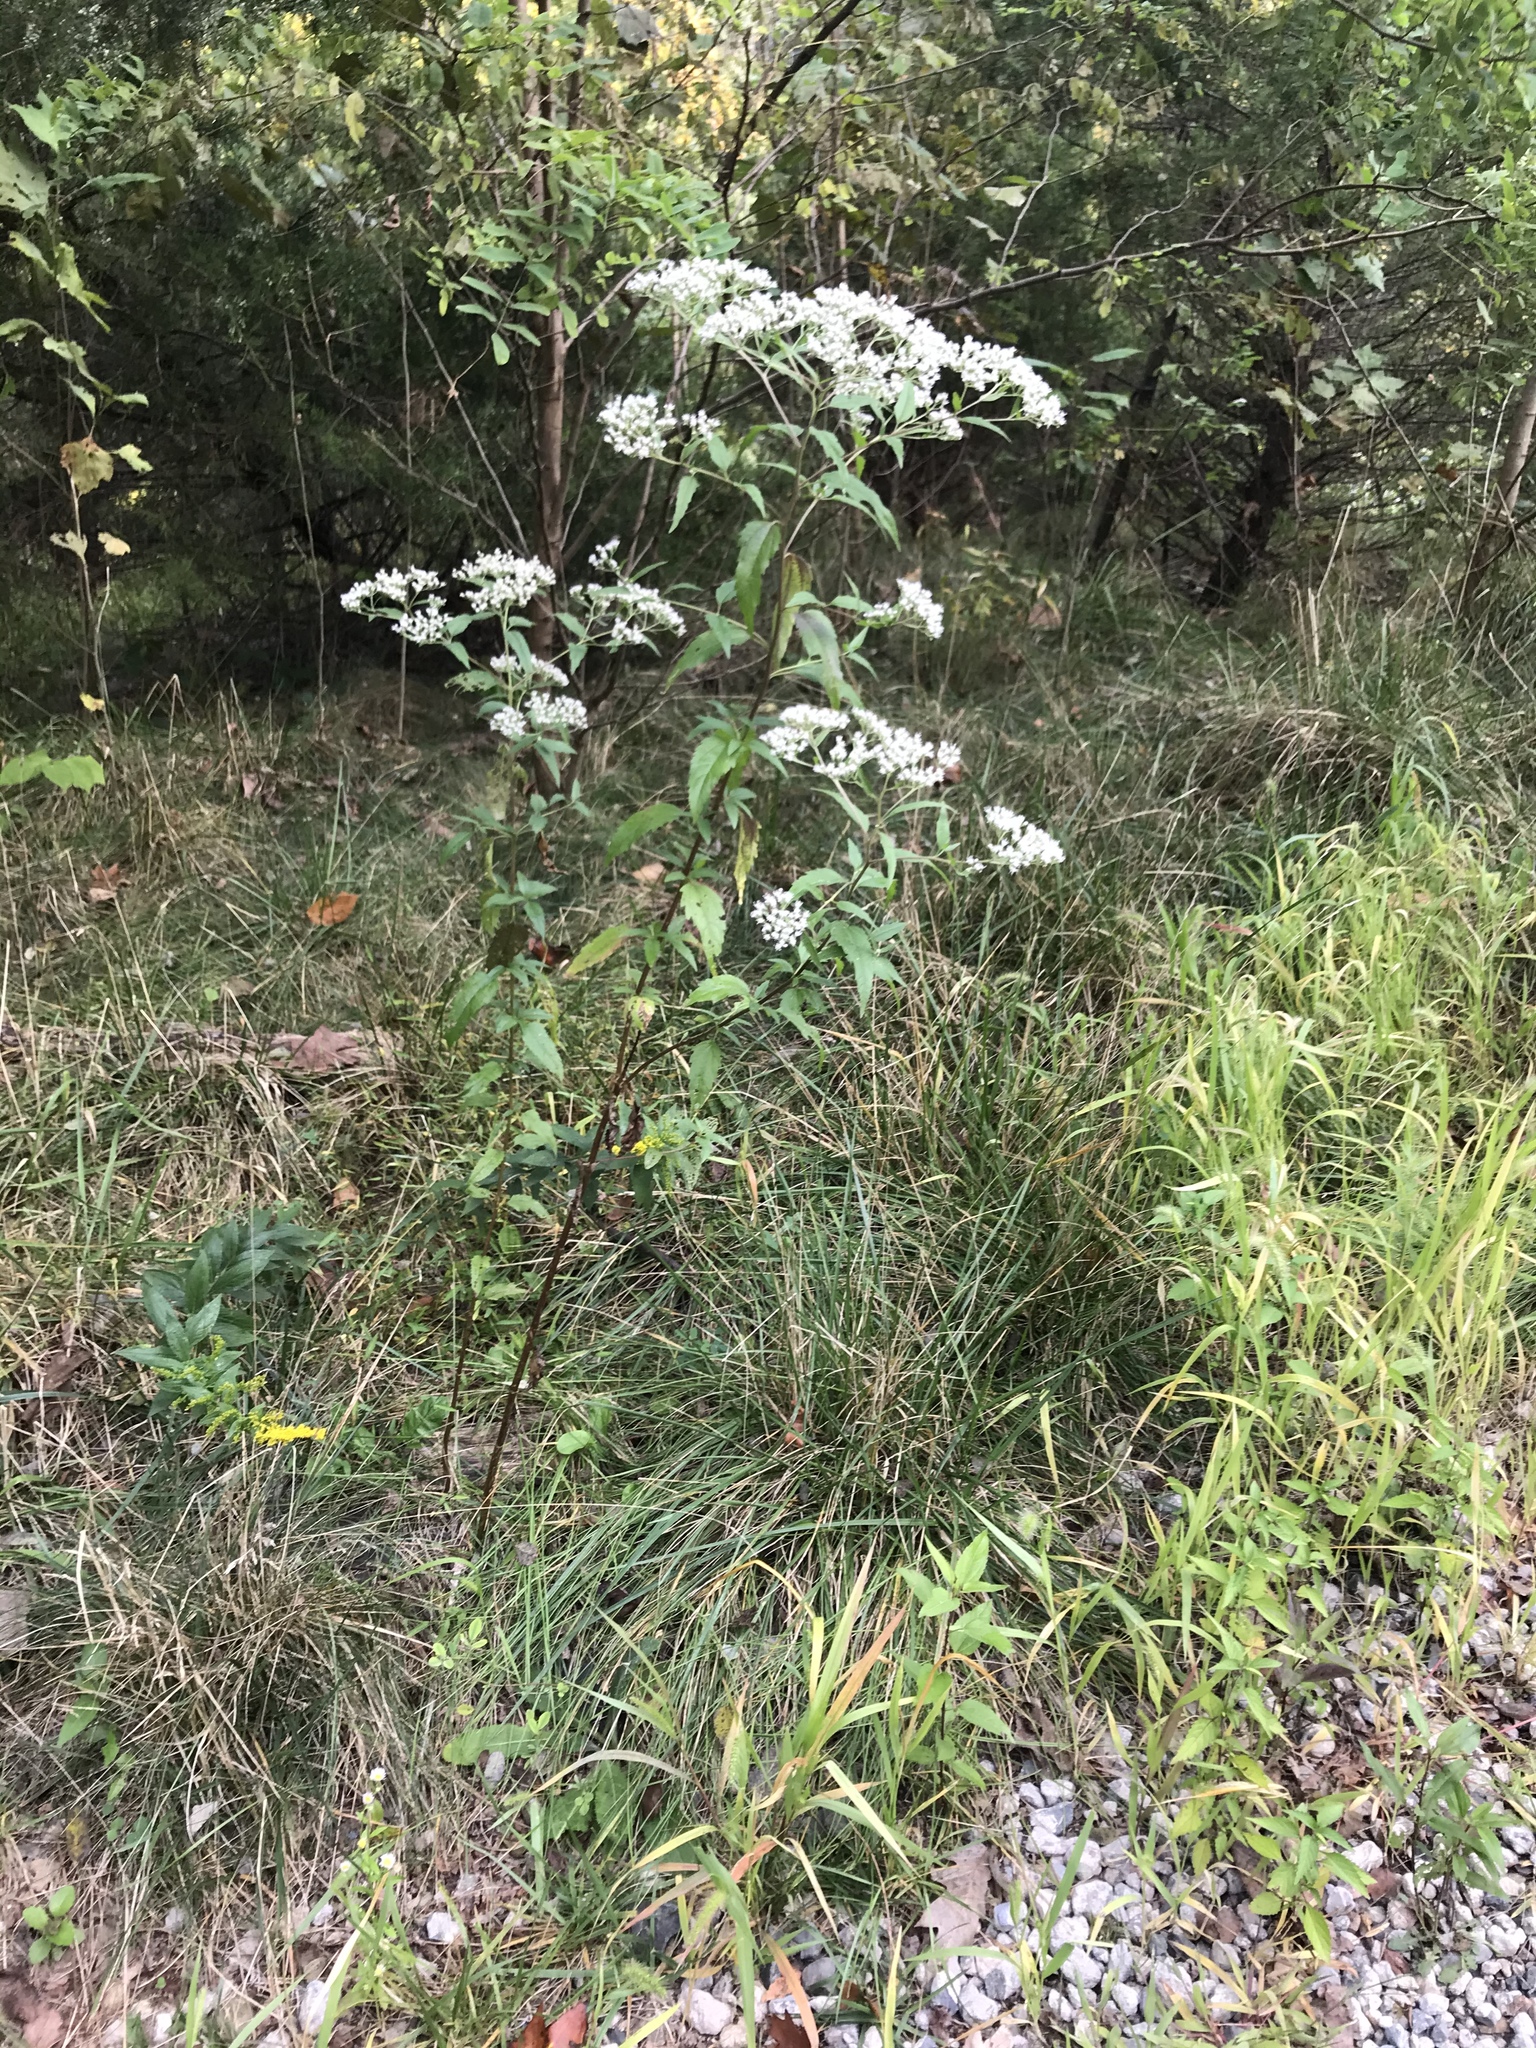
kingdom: Plantae
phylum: Tracheophyta
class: Magnoliopsida
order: Asterales
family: Asteraceae
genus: Eupatorium
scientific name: Eupatorium serotinum
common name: Late boneset
